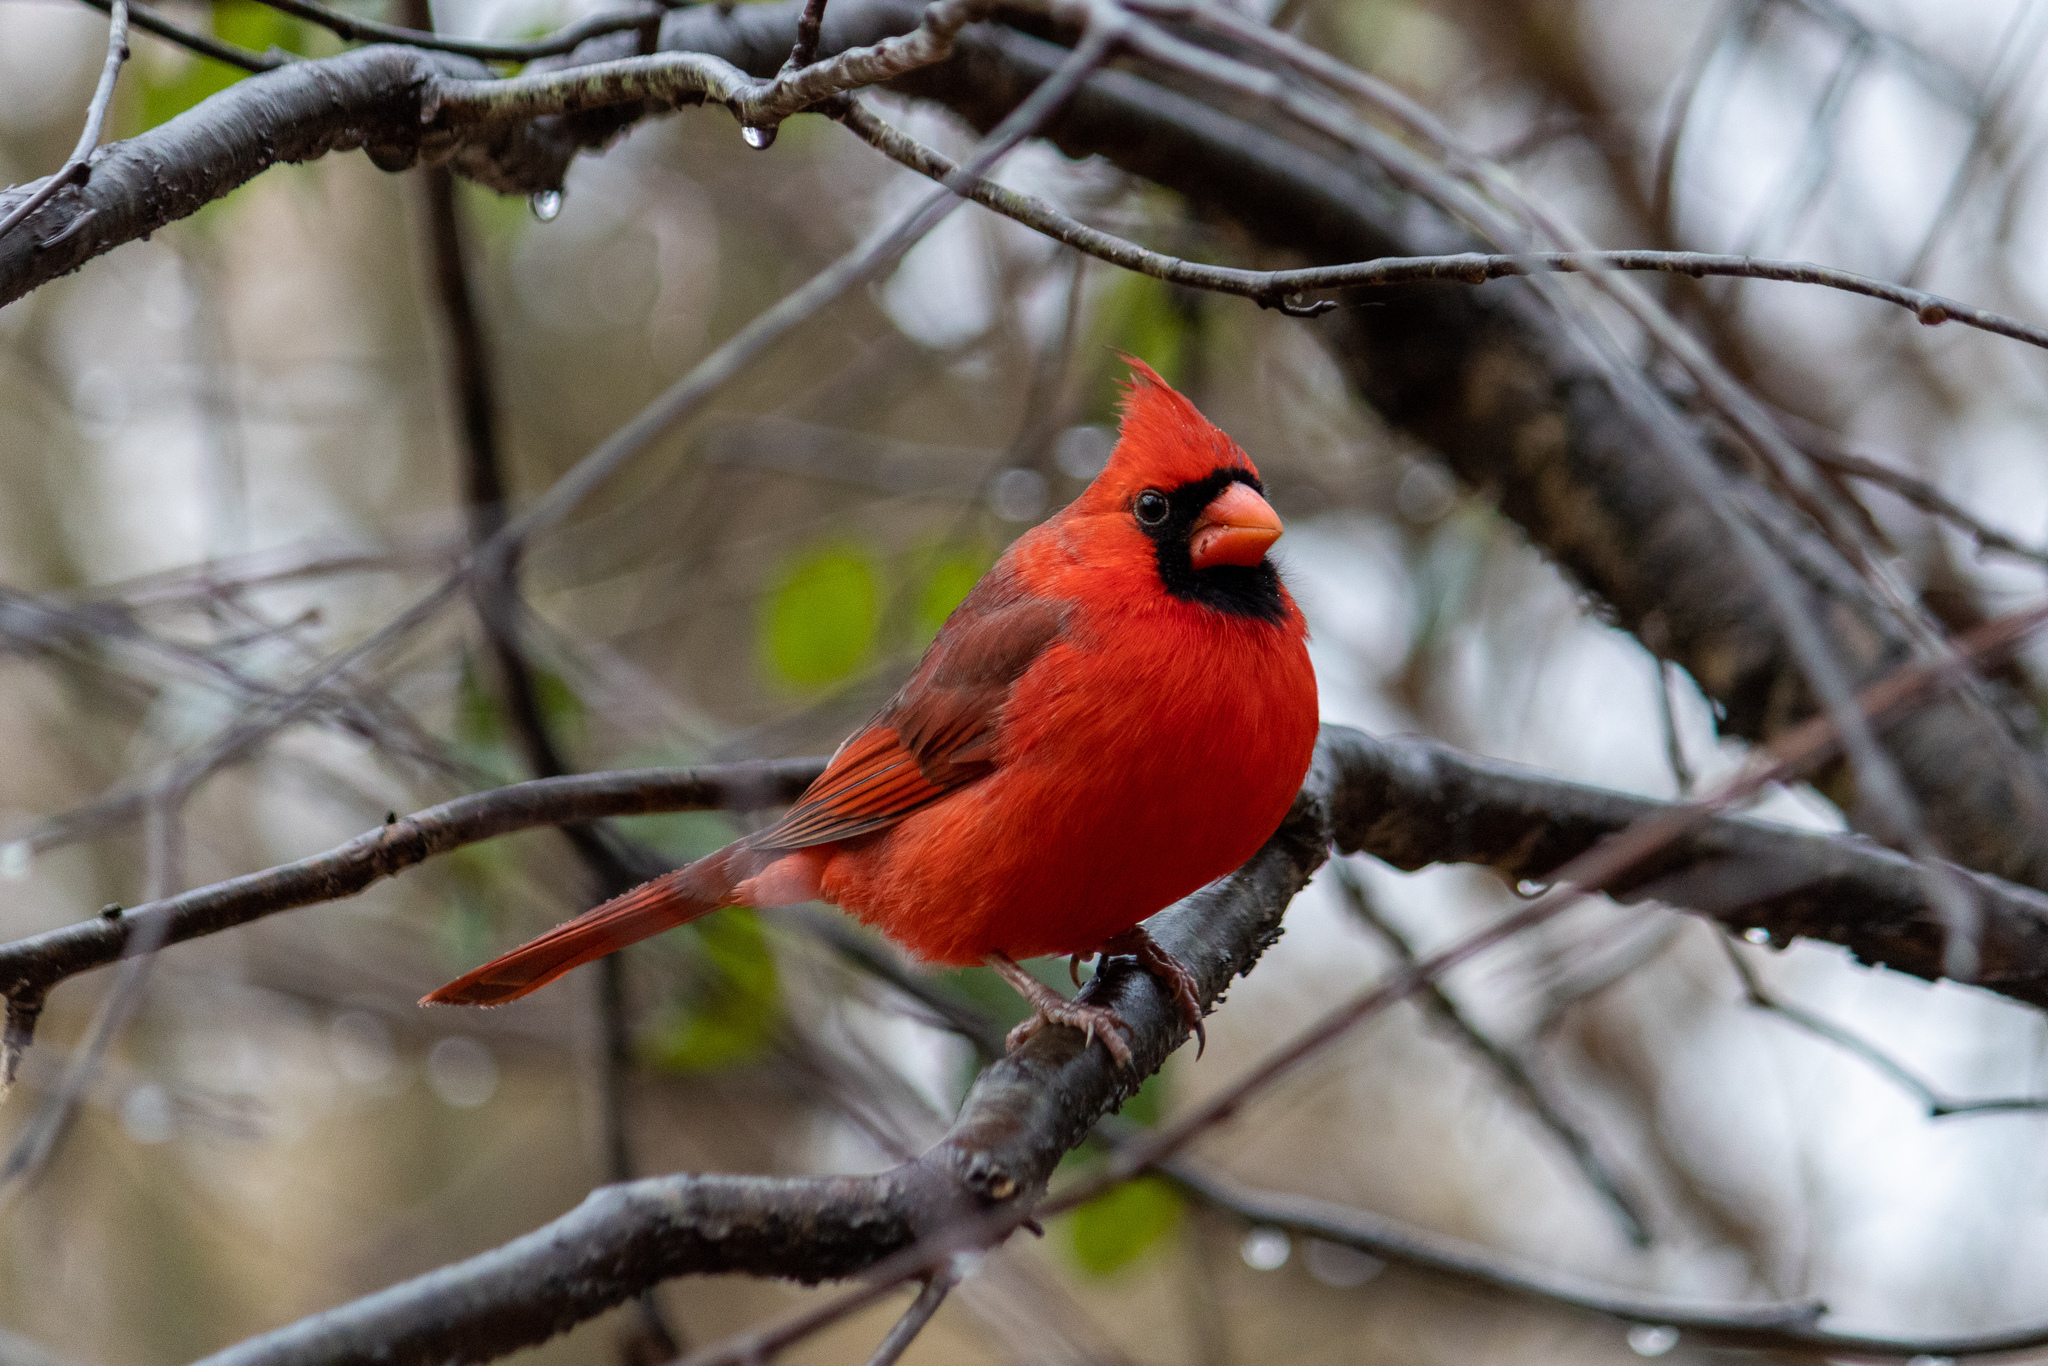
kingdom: Animalia
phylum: Chordata
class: Aves
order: Passeriformes
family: Cardinalidae
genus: Cardinalis
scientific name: Cardinalis cardinalis
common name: Northern cardinal
